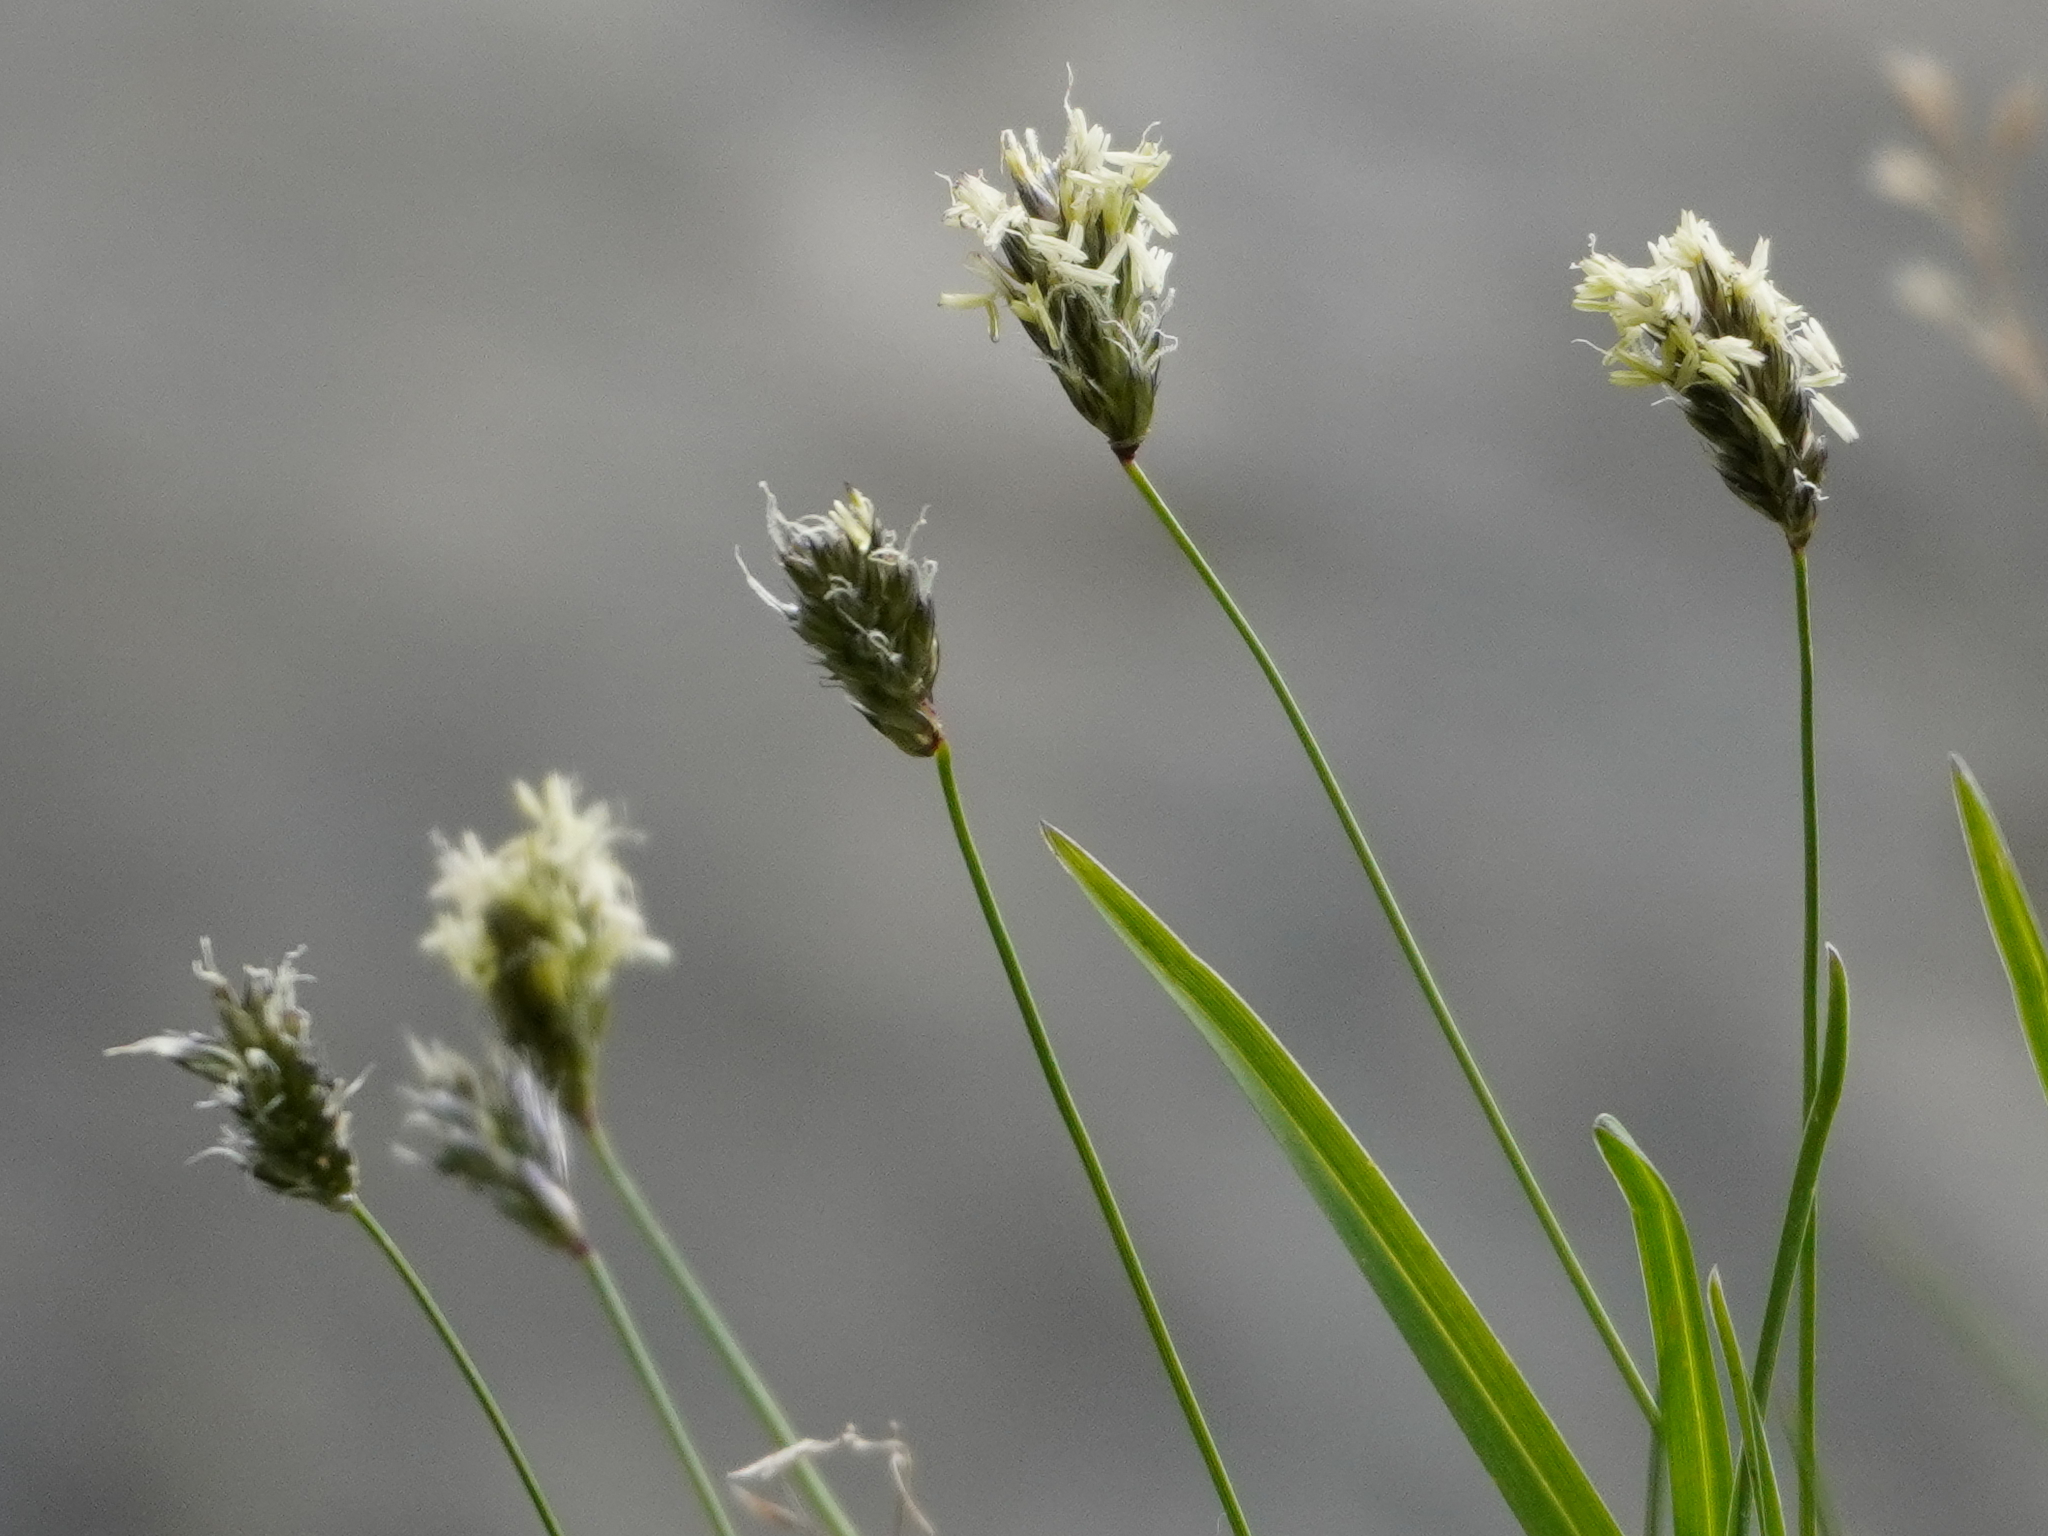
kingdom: Plantae
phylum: Tracheophyta
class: Liliopsida
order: Poales
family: Poaceae
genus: Sesleria
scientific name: Sesleria caerulea
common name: Blue moor-grass
